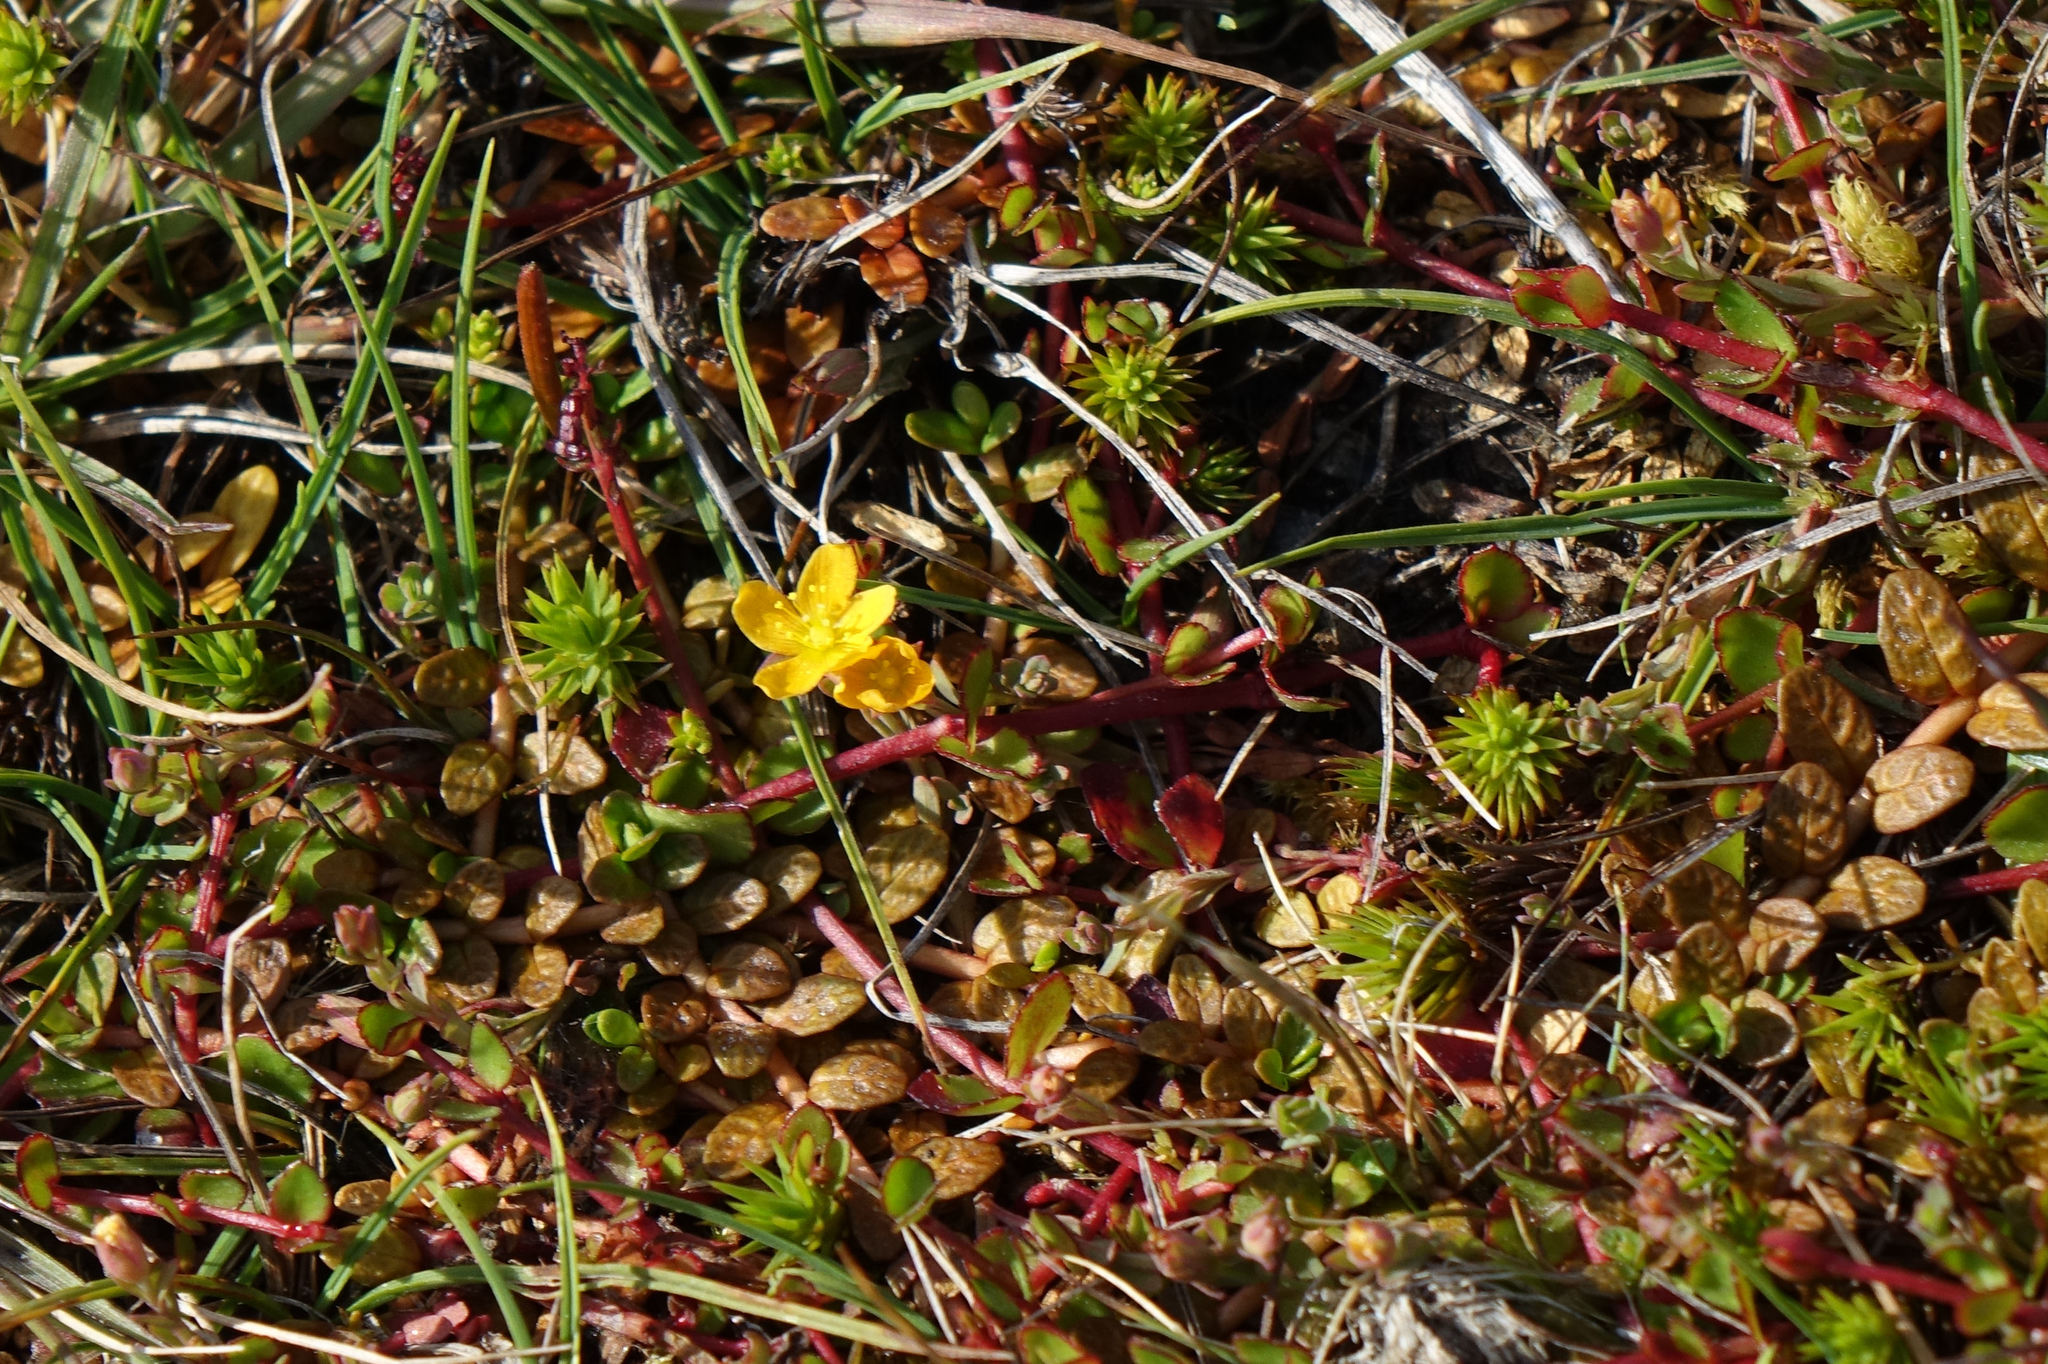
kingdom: Plantae
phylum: Tracheophyta
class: Magnoliopsida
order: Malpighiales
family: Hypericaceae
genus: Hypericum
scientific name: Hypericum rubicundulum
